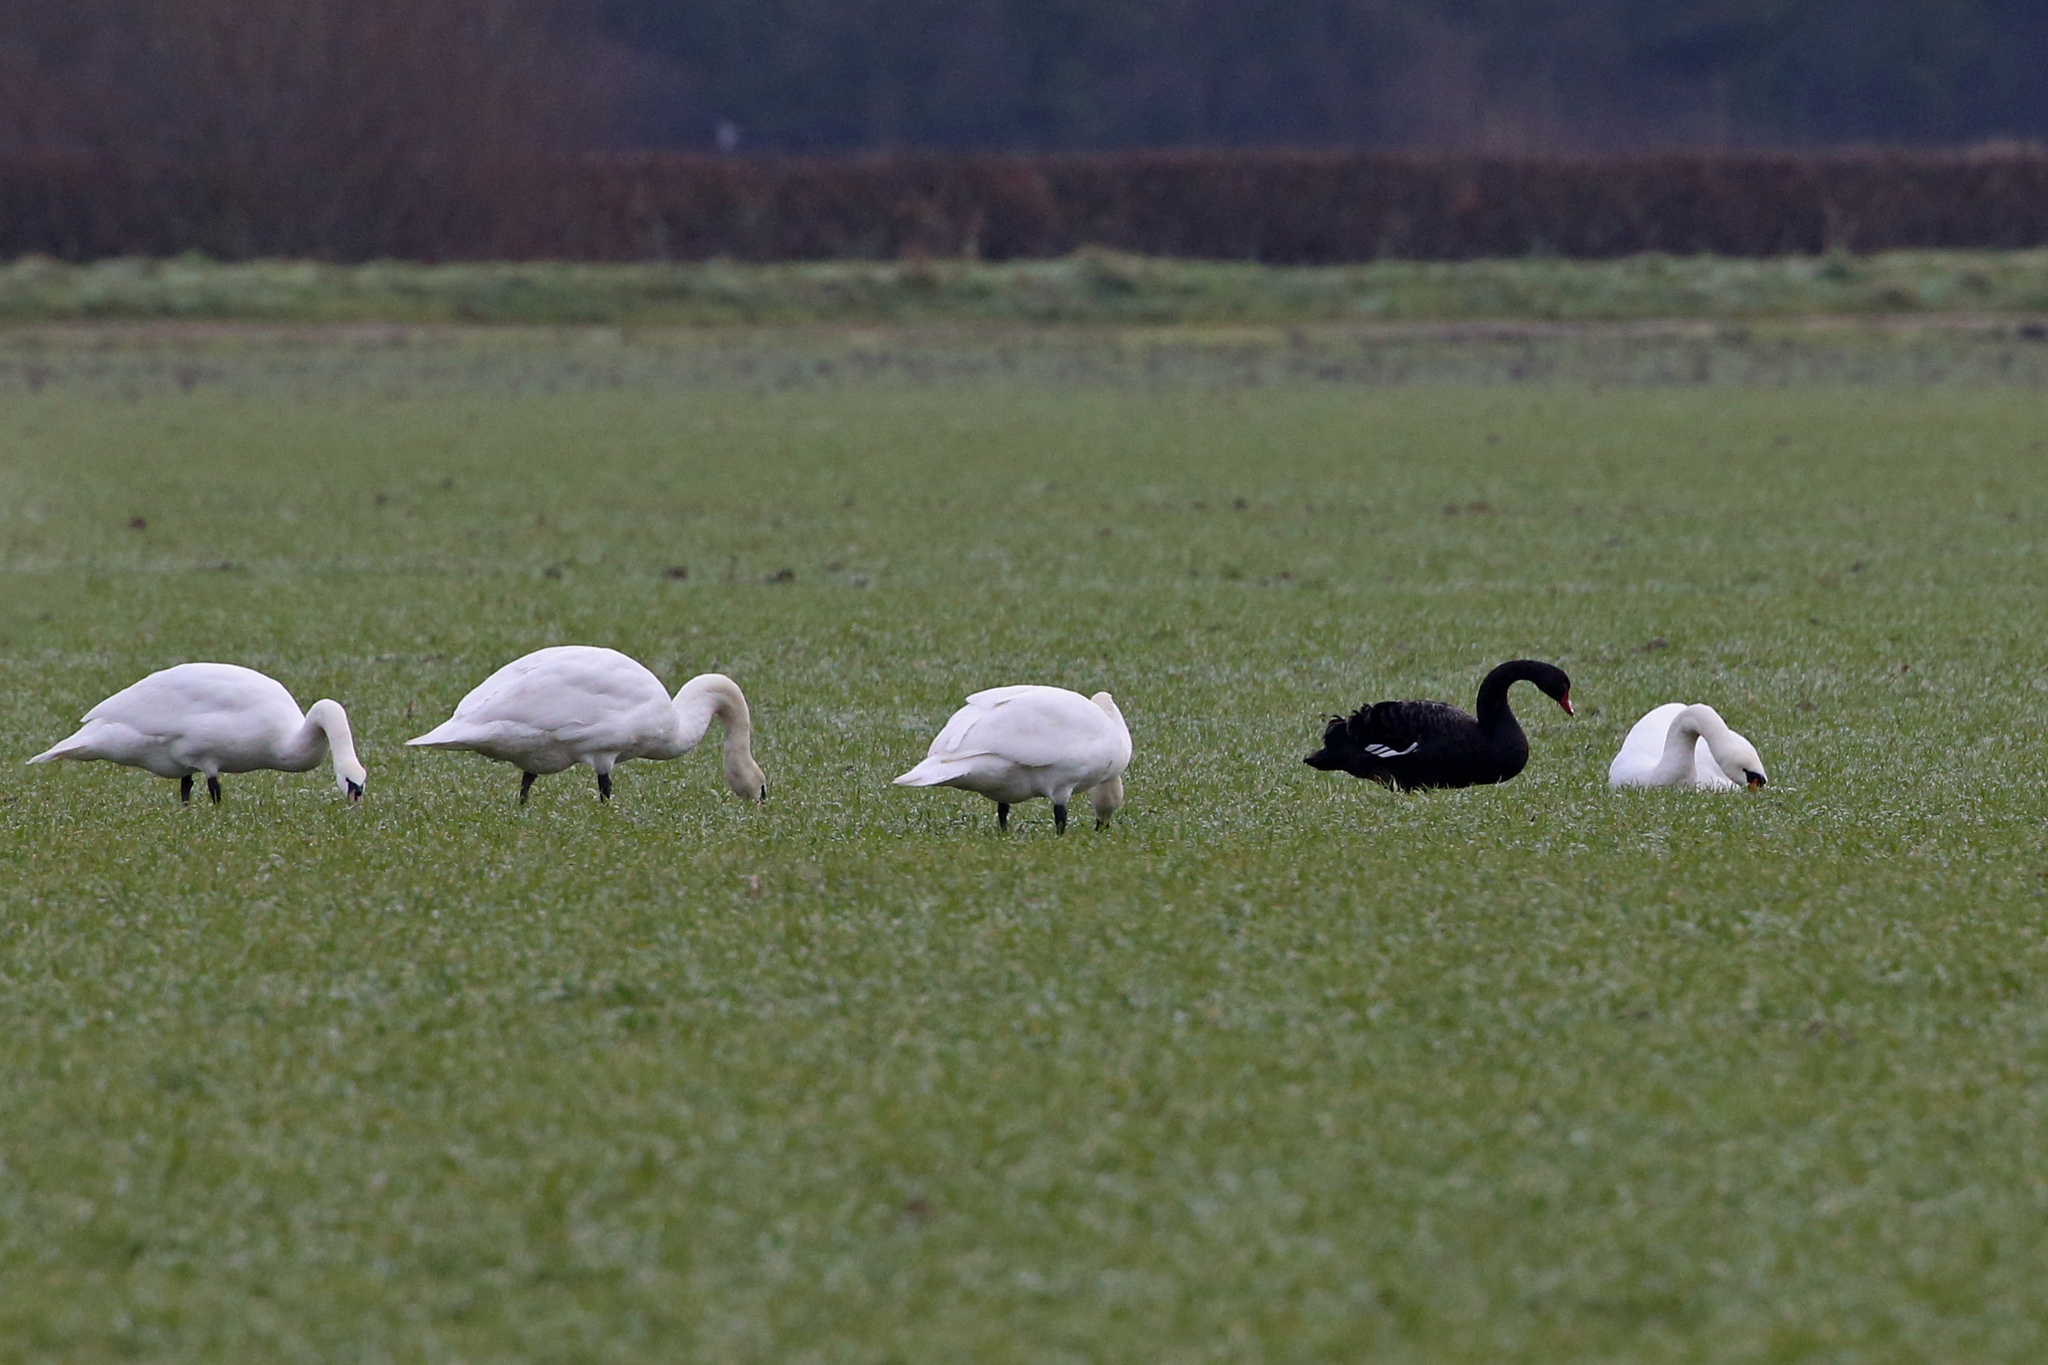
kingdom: Animalia
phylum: Chordata
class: Aves
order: Anseriformes
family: Anatidae
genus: Cygnus
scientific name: Cygnus atratus
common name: Black swan
